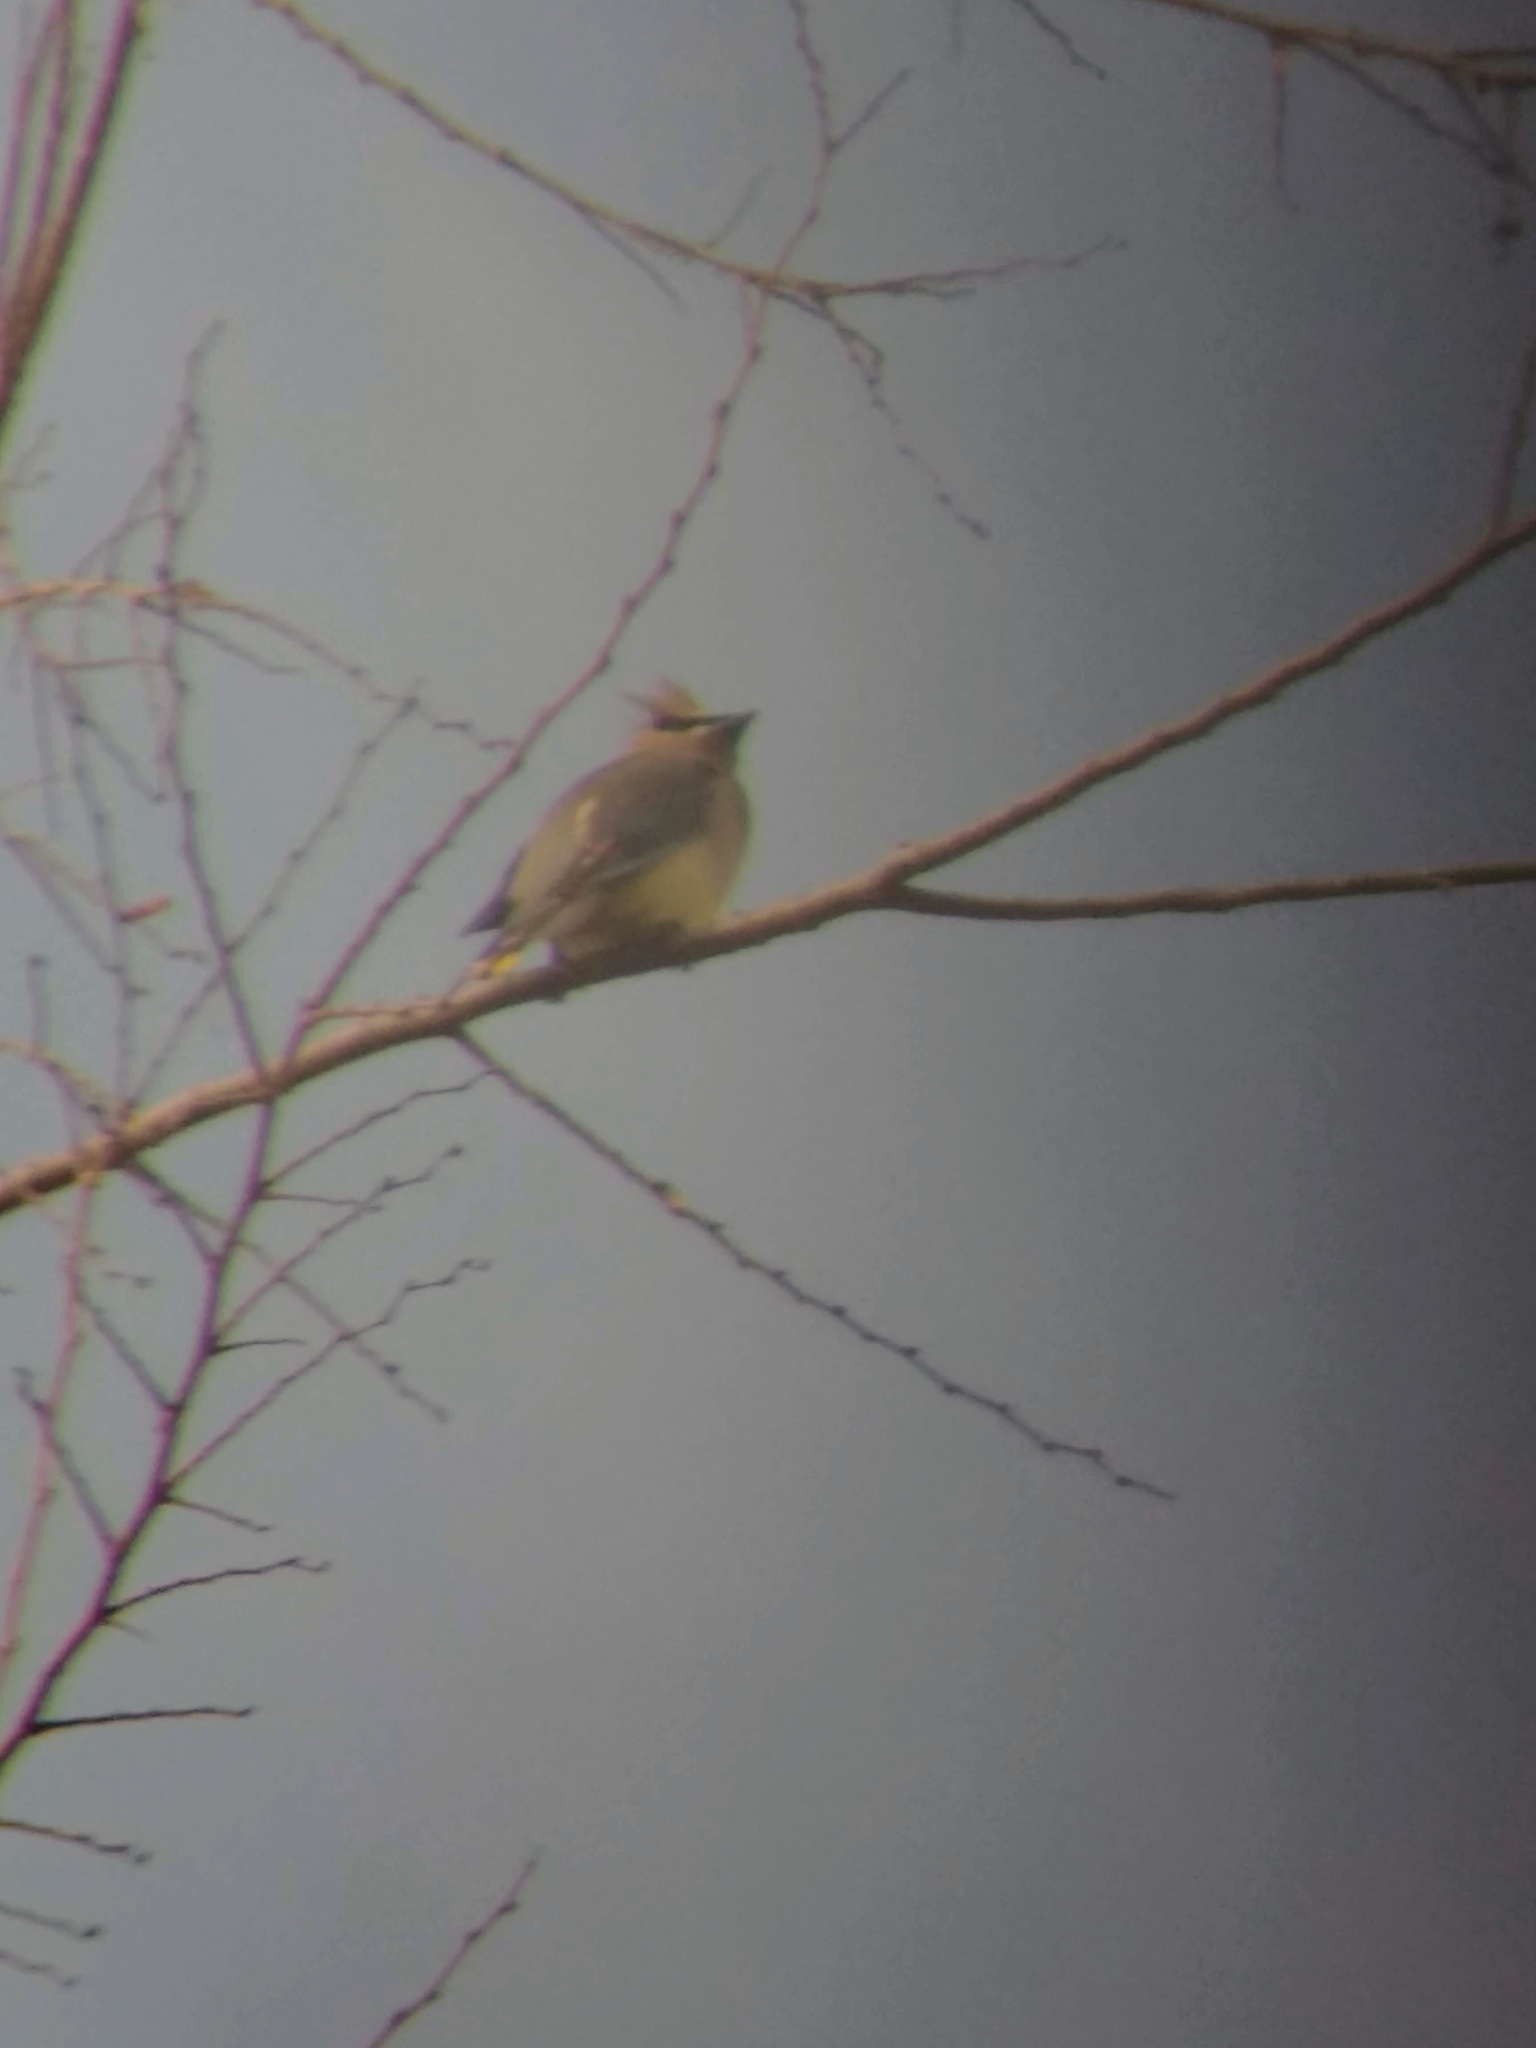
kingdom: Animalia
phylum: Chordata
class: Aves
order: Passeriformes
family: Bombycillidae
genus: Bombycilla
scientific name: Bombycilla cedrorum
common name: Cedar waxwing
